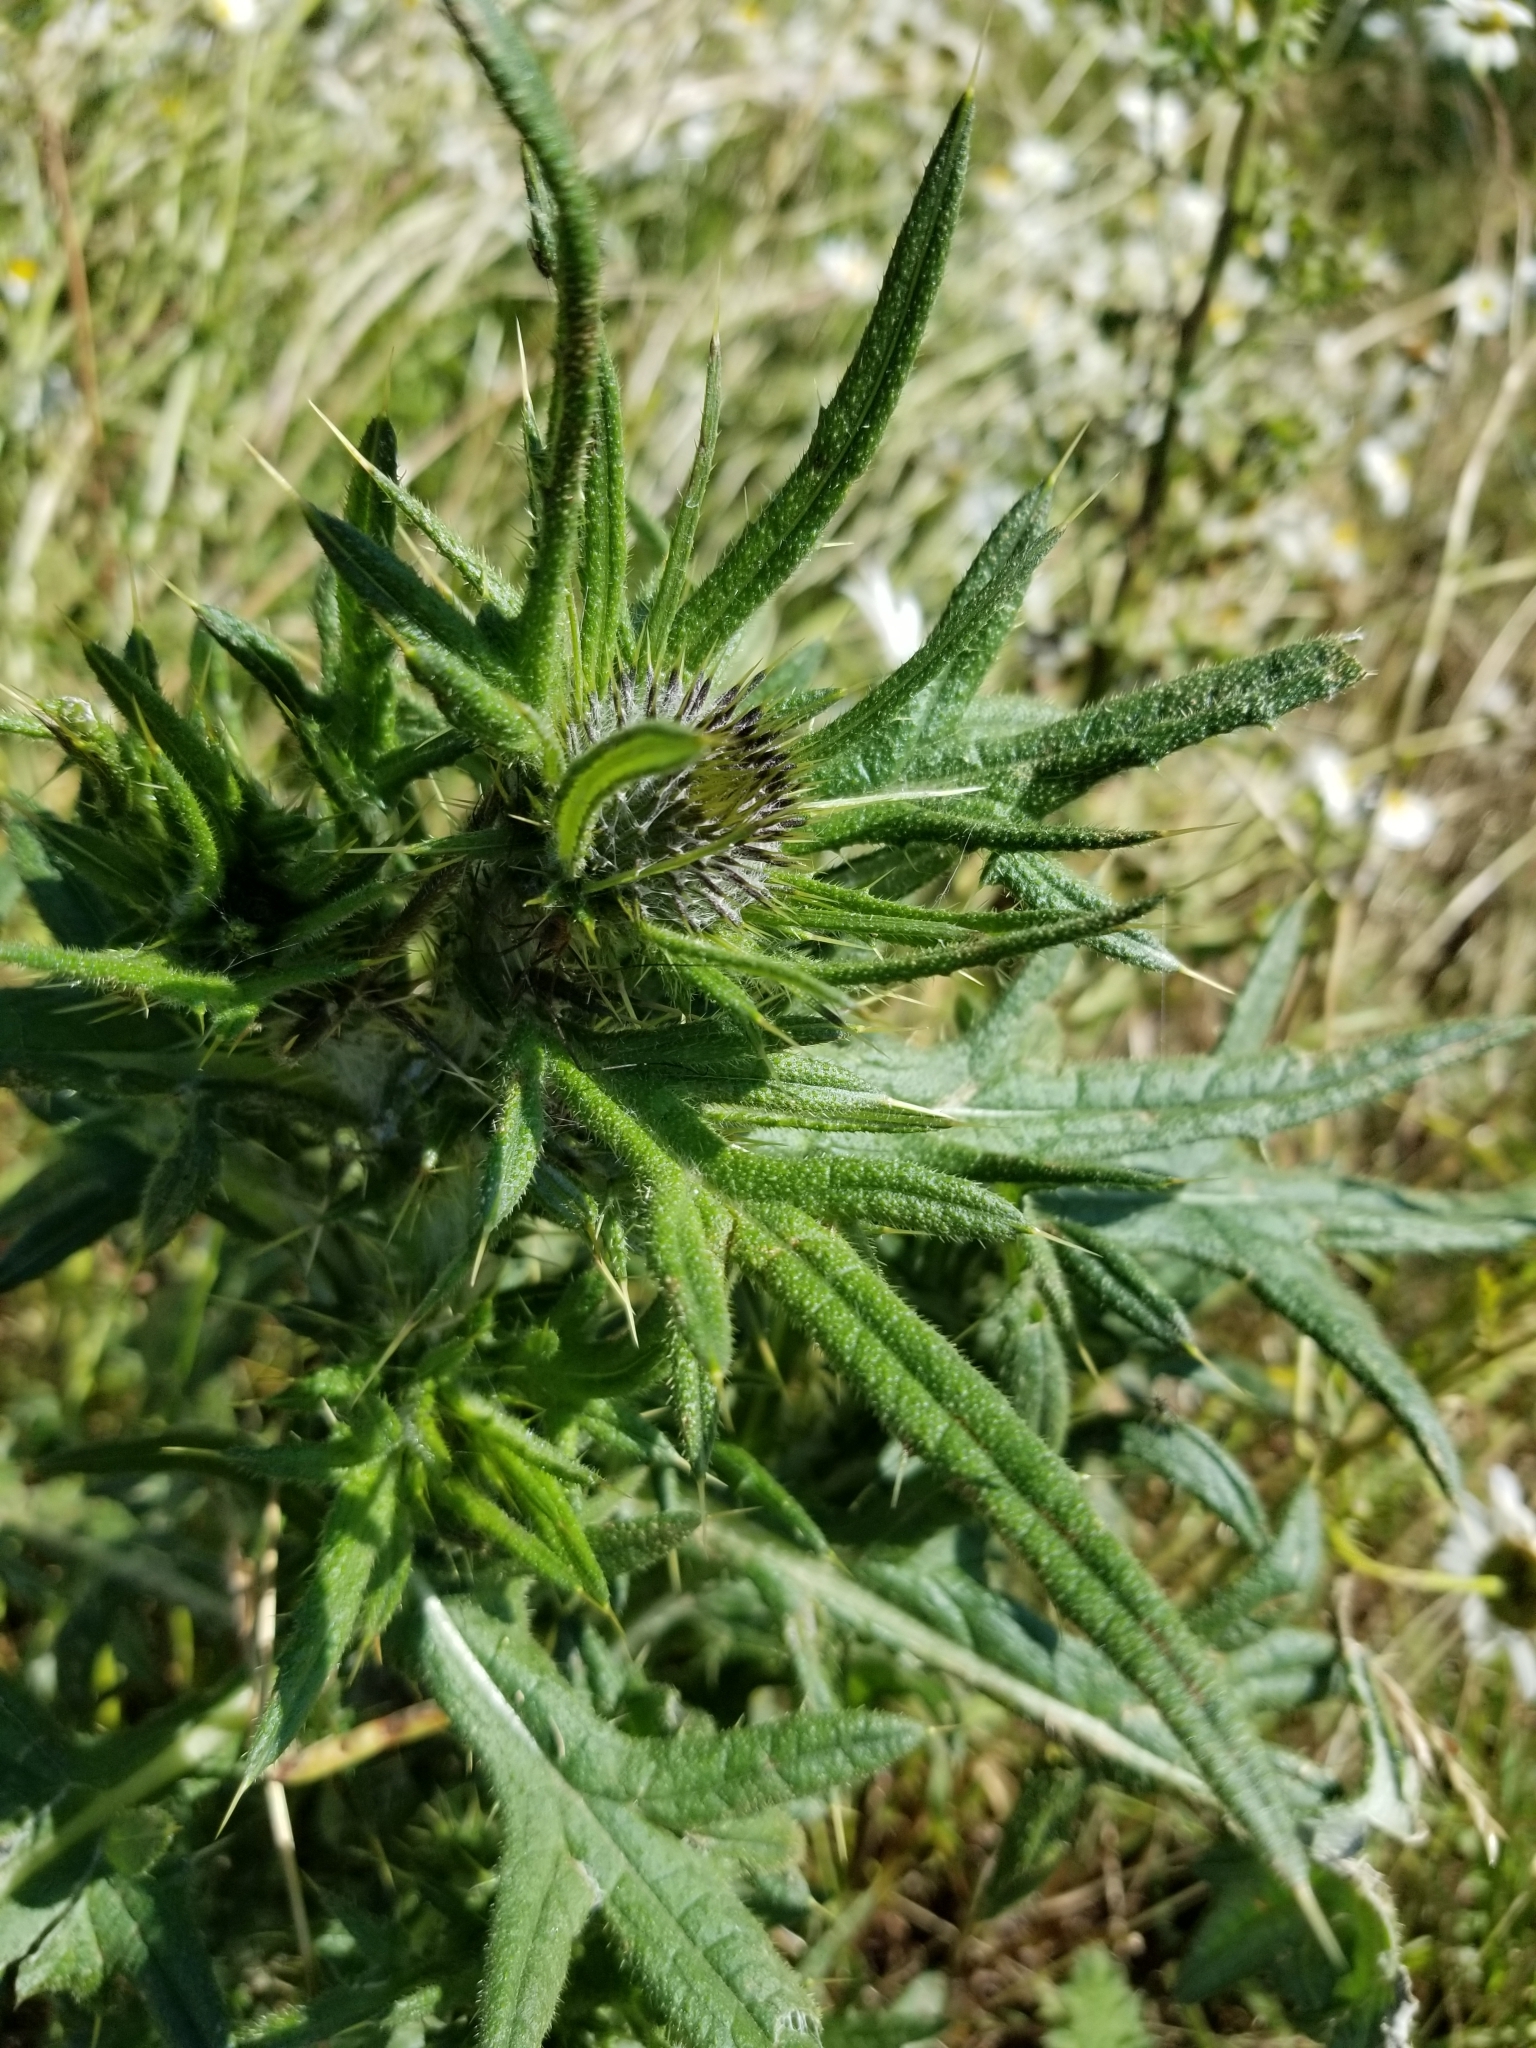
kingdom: Plantae
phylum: Tracheophyta
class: Magnoliopsida
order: Asterales
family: Asteraceae
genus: Cirsium
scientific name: Cirsium vulgare
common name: Bull thistle
